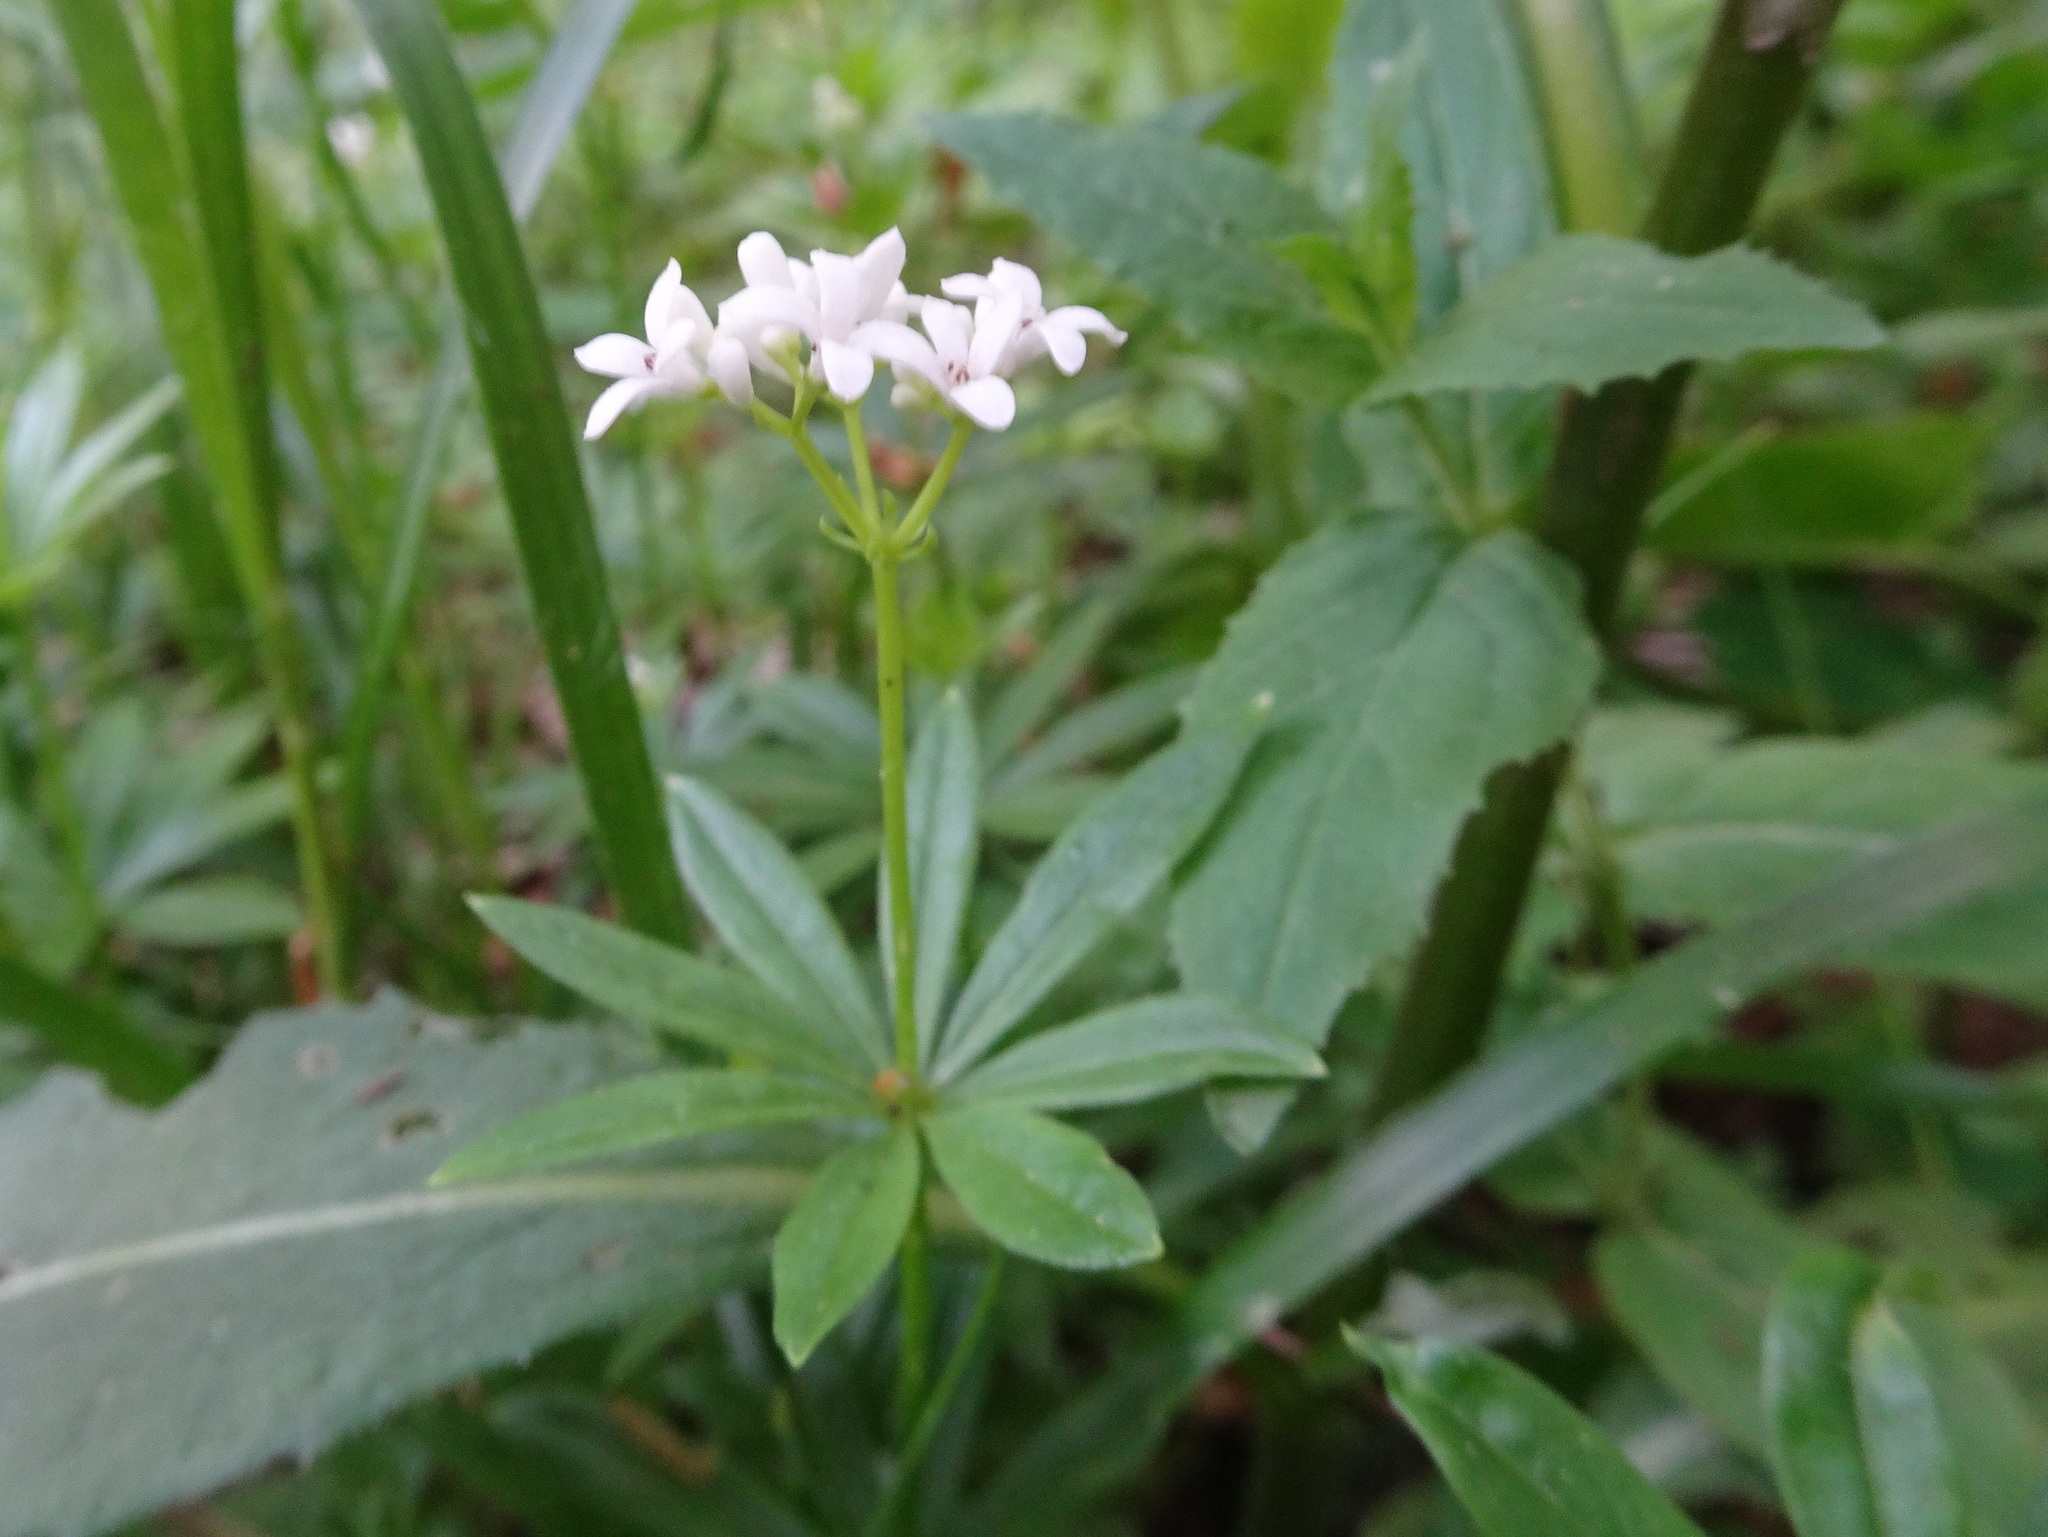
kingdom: Plantae
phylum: Tracheophyta
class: Magnoliopsida
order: Gentianales
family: Rubiaceae
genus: Galium
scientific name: Galium odoratum
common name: Sweet woodruff
